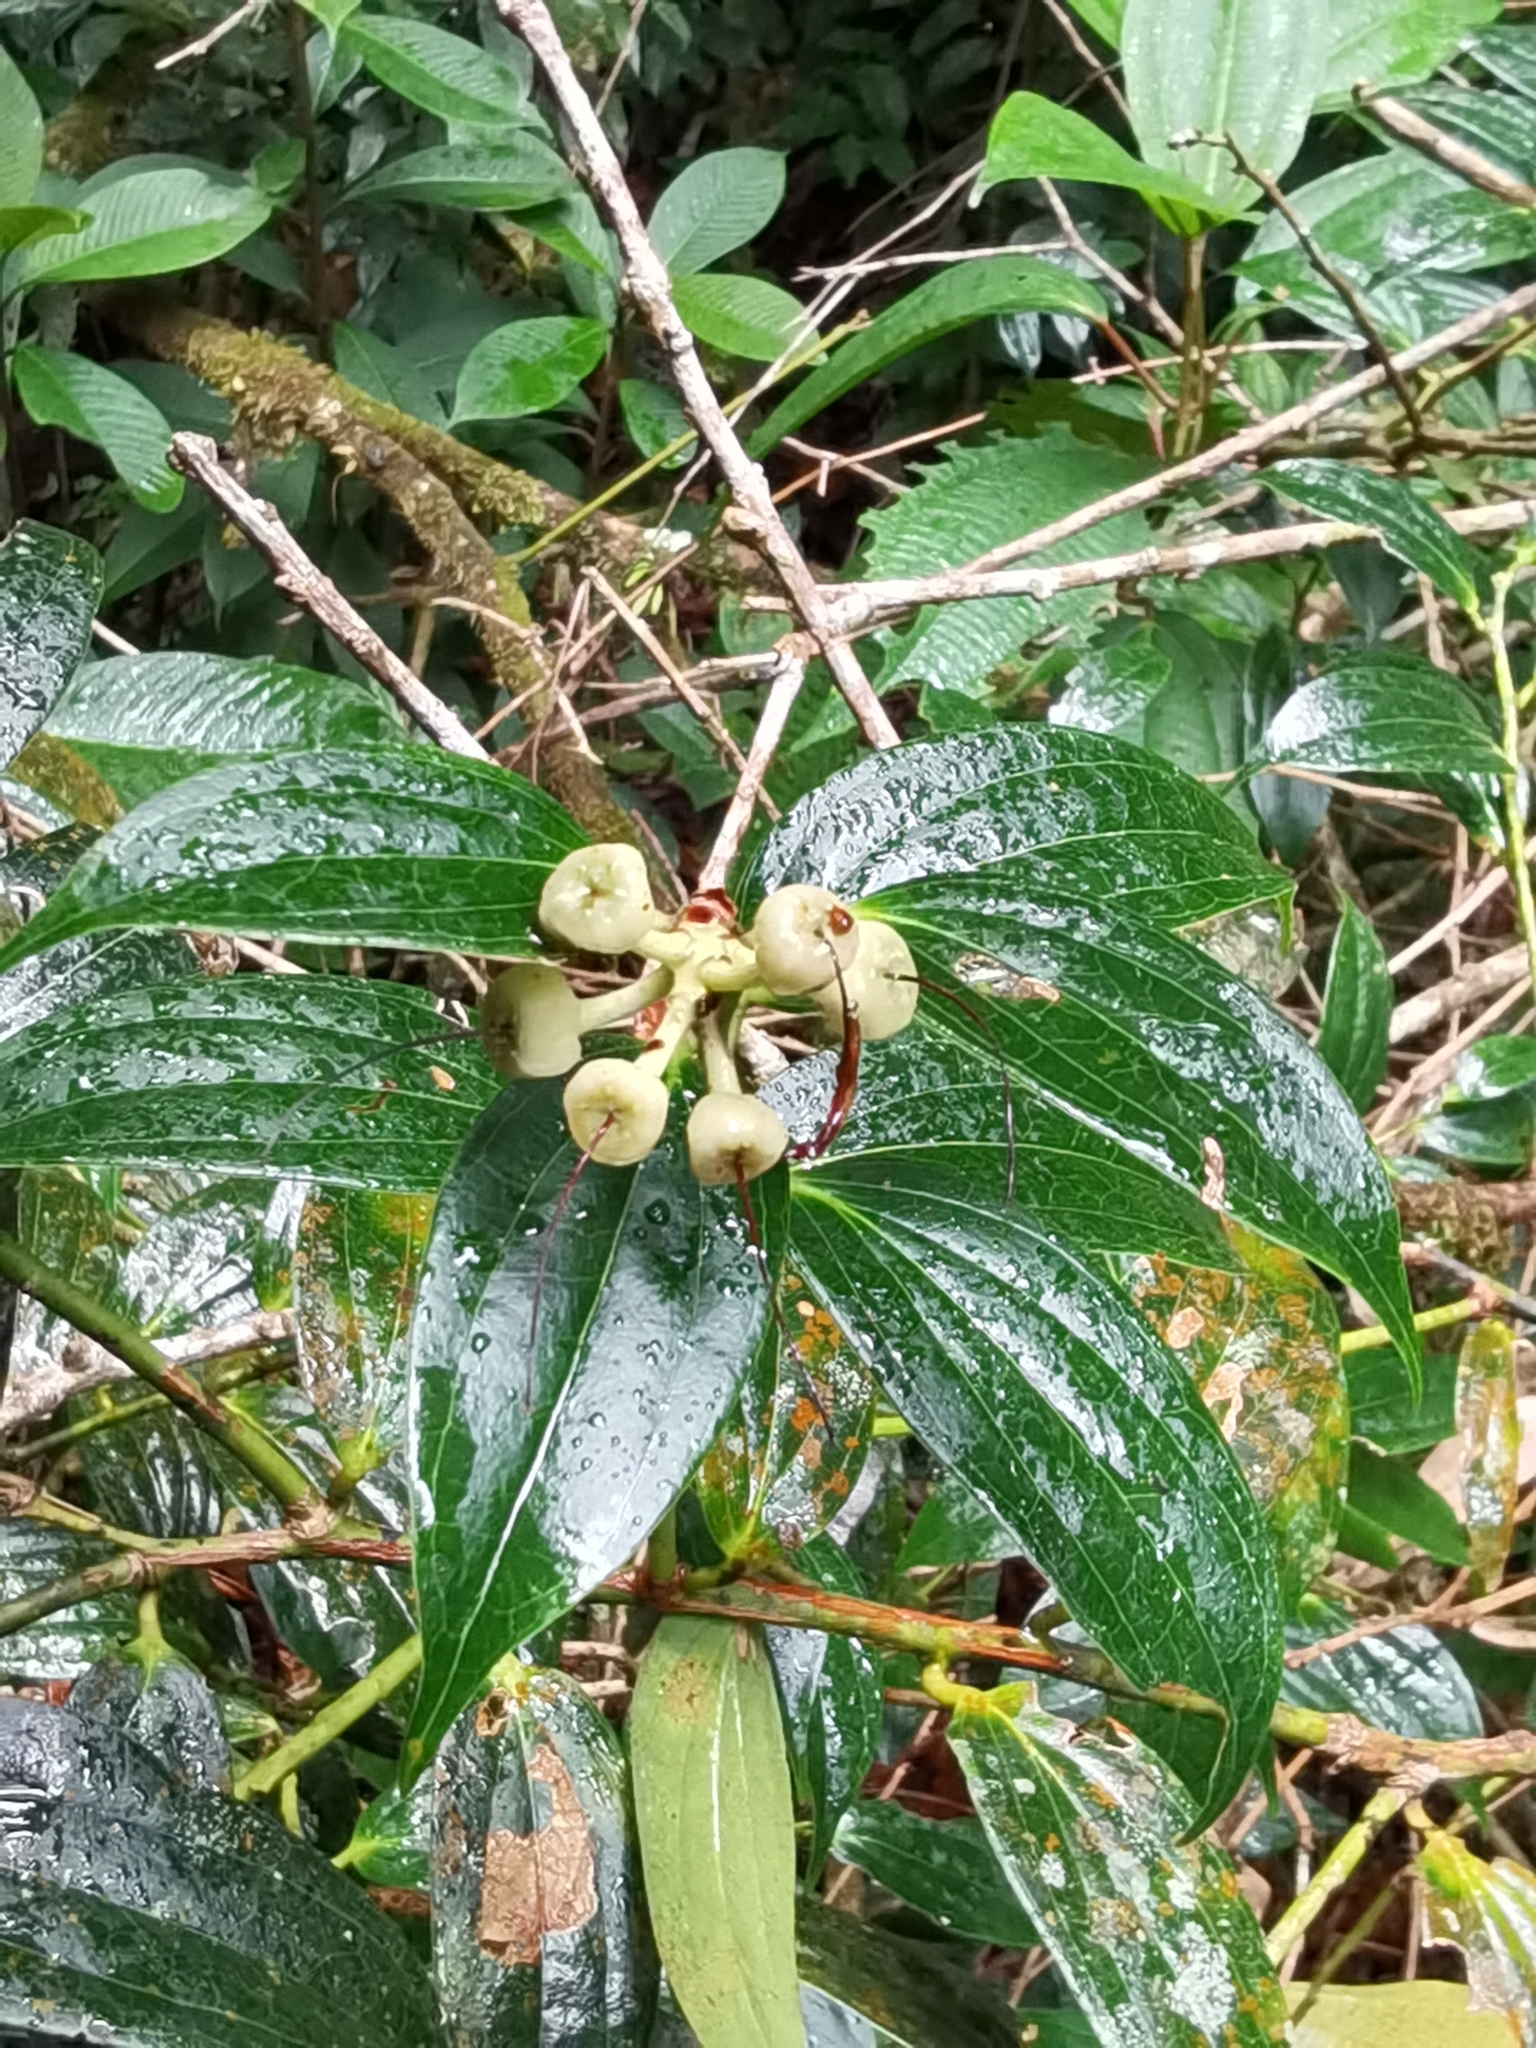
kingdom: Plantae
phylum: Tracheophyta
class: Magnoliopsida
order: Ericales
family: Ericaceae
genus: Cavendishia
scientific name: Cavendishia bracteata
